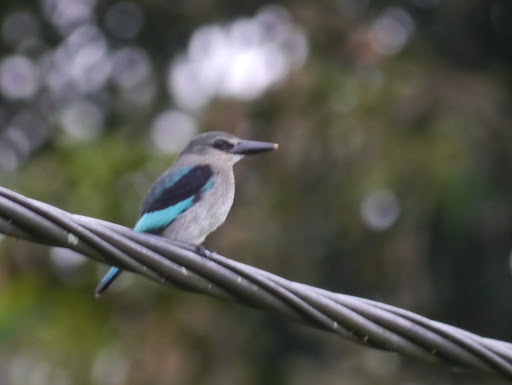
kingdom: Animalia
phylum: Chordata
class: Aves
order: Coraciiformes
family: Alcedinidae
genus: Halcyon
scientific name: Halcyon senegalensis
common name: Woodland kingfisher
